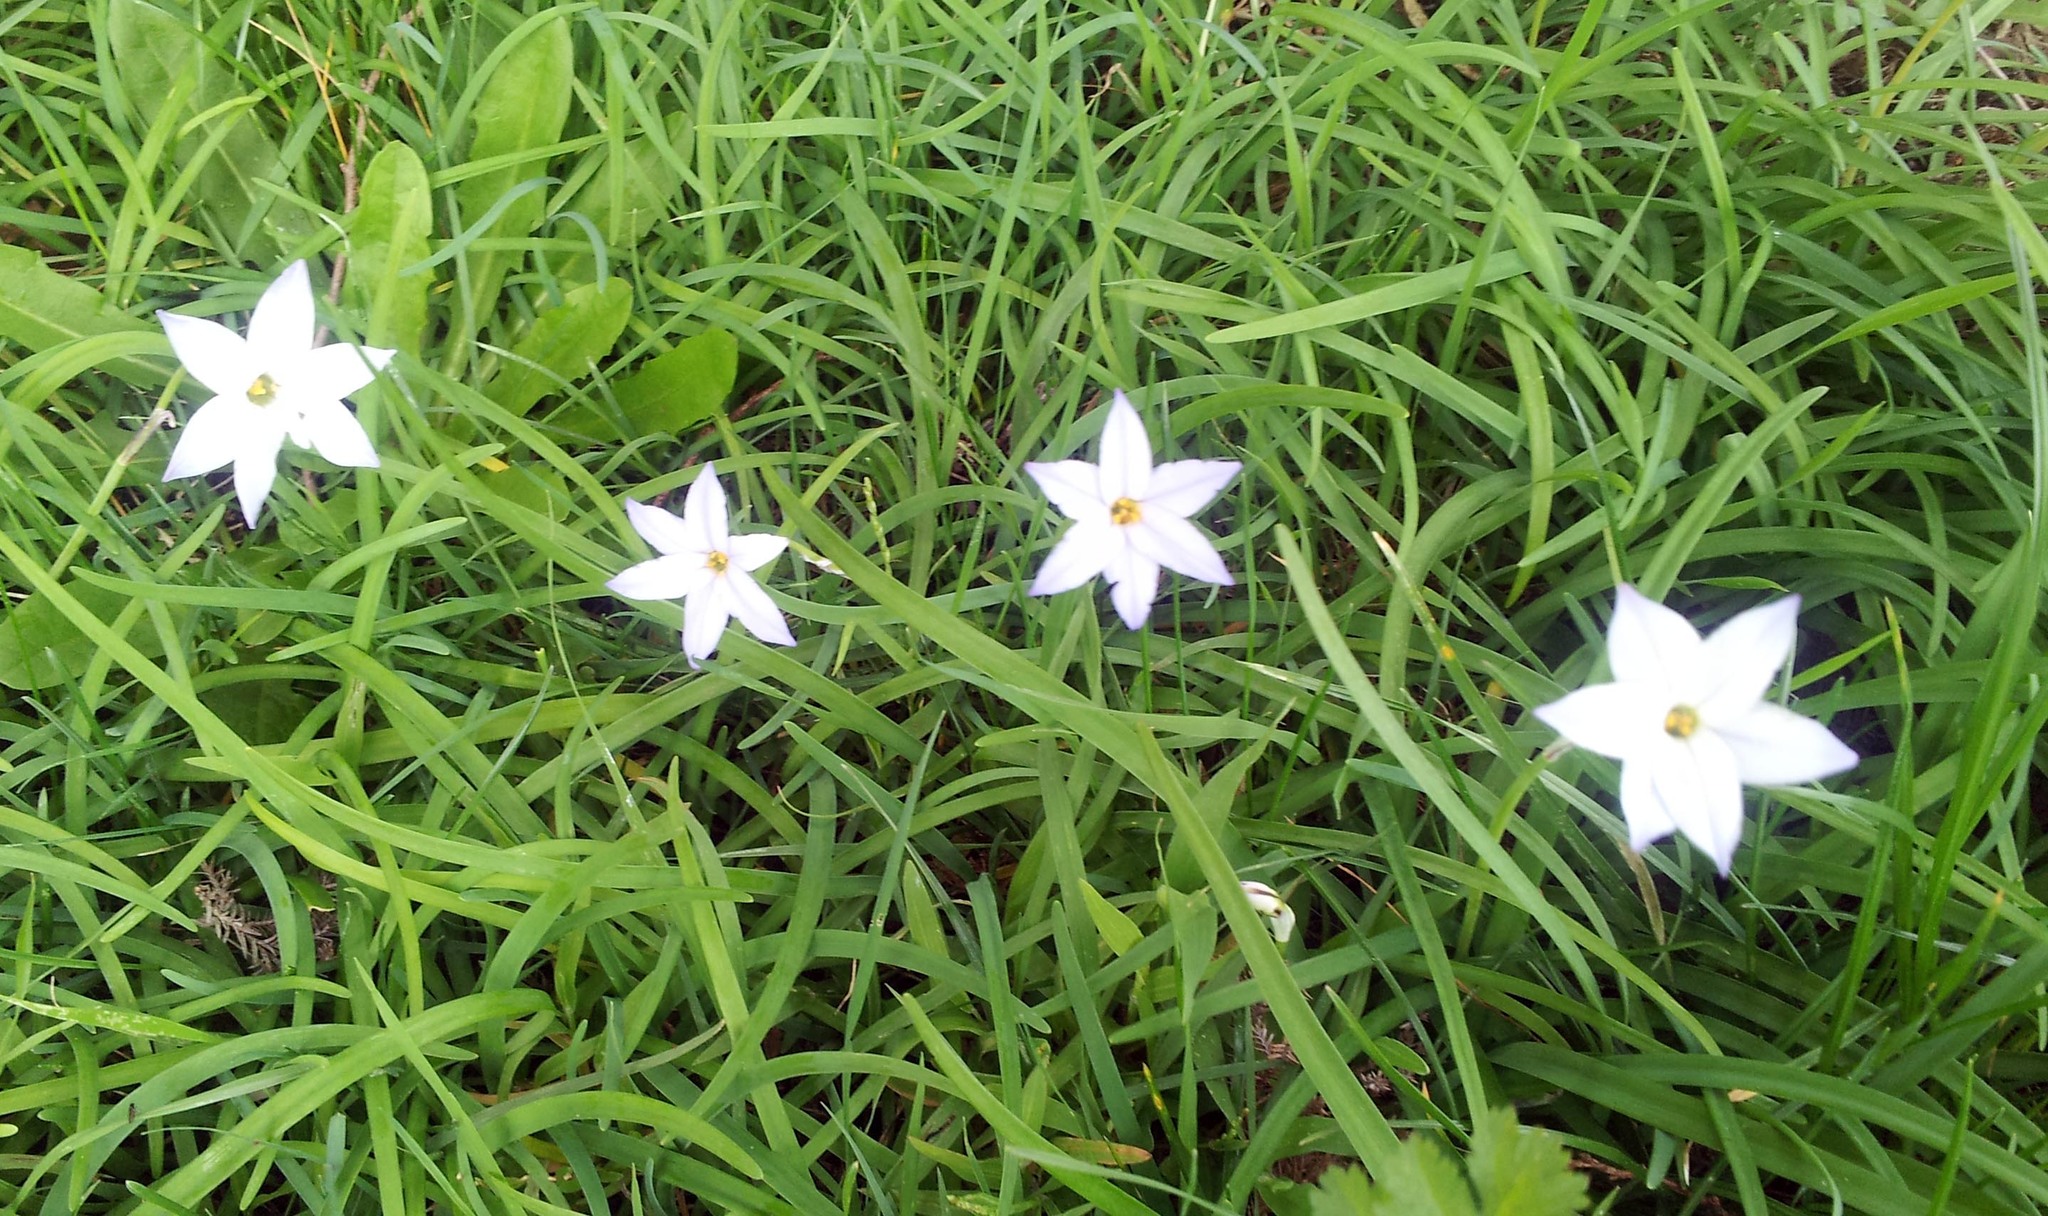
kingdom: Plantae
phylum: Tracheophyta
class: Liliopsida
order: Asparagales
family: Amaryllidaceae
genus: Ipheion
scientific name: Ipheion uniflorum
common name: Spring starflower
